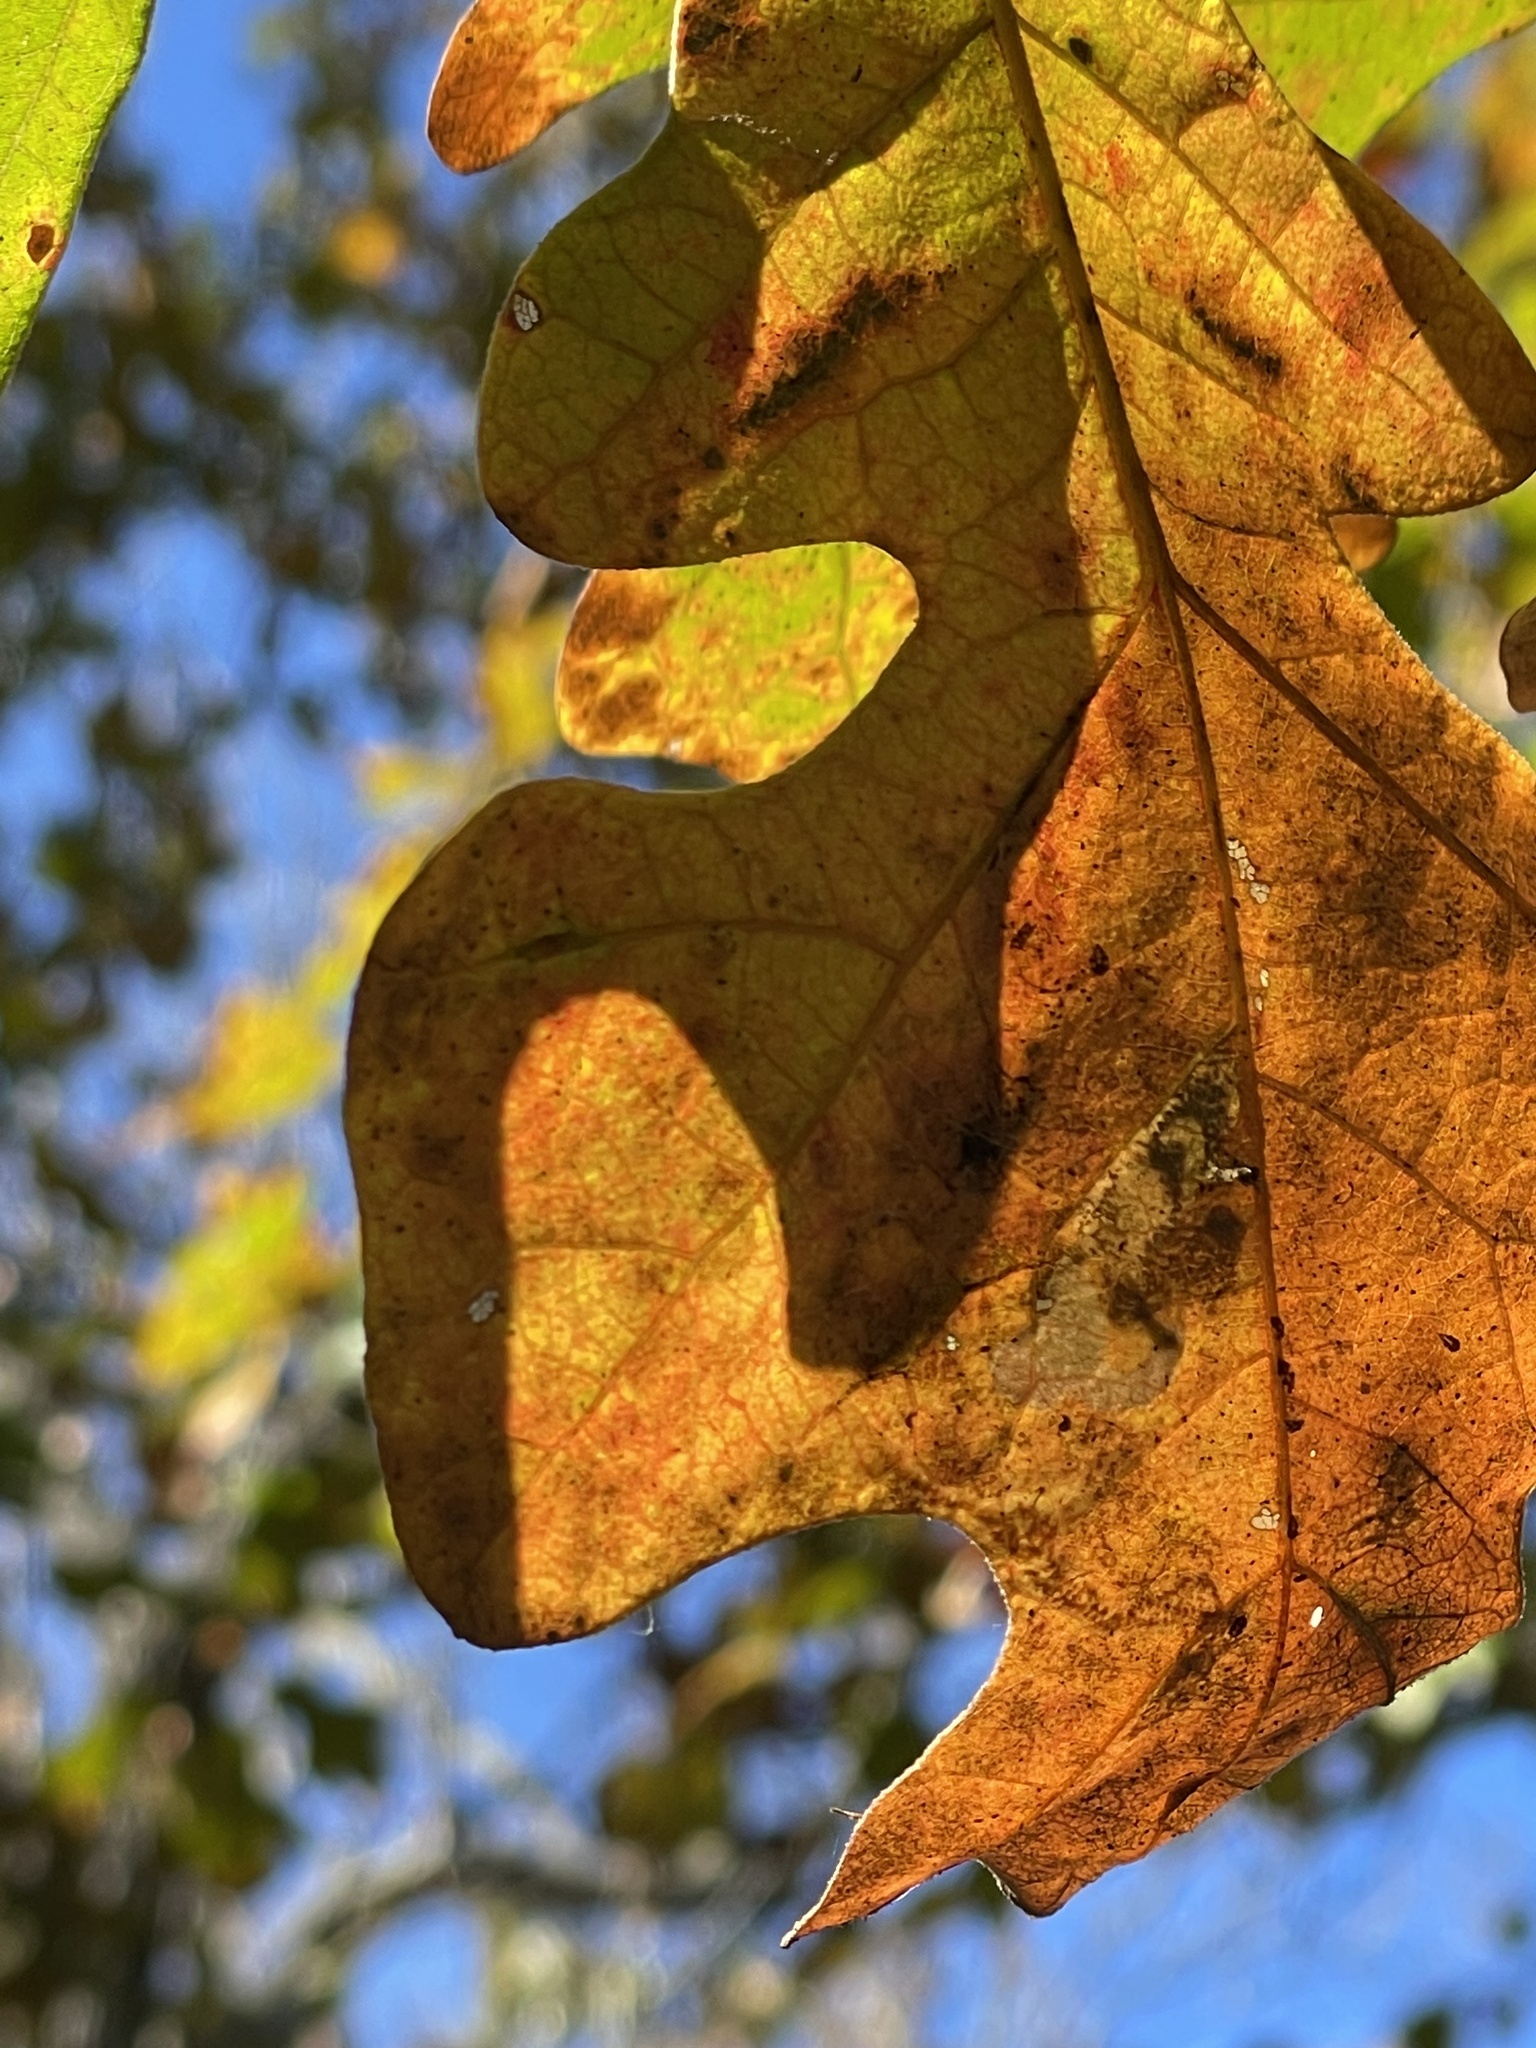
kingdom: Plantae
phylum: Tracheophyta
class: Magnoliopsida
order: Fagales
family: Fagaceae
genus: Quercus
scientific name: Quercus stellata
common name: Post oak
